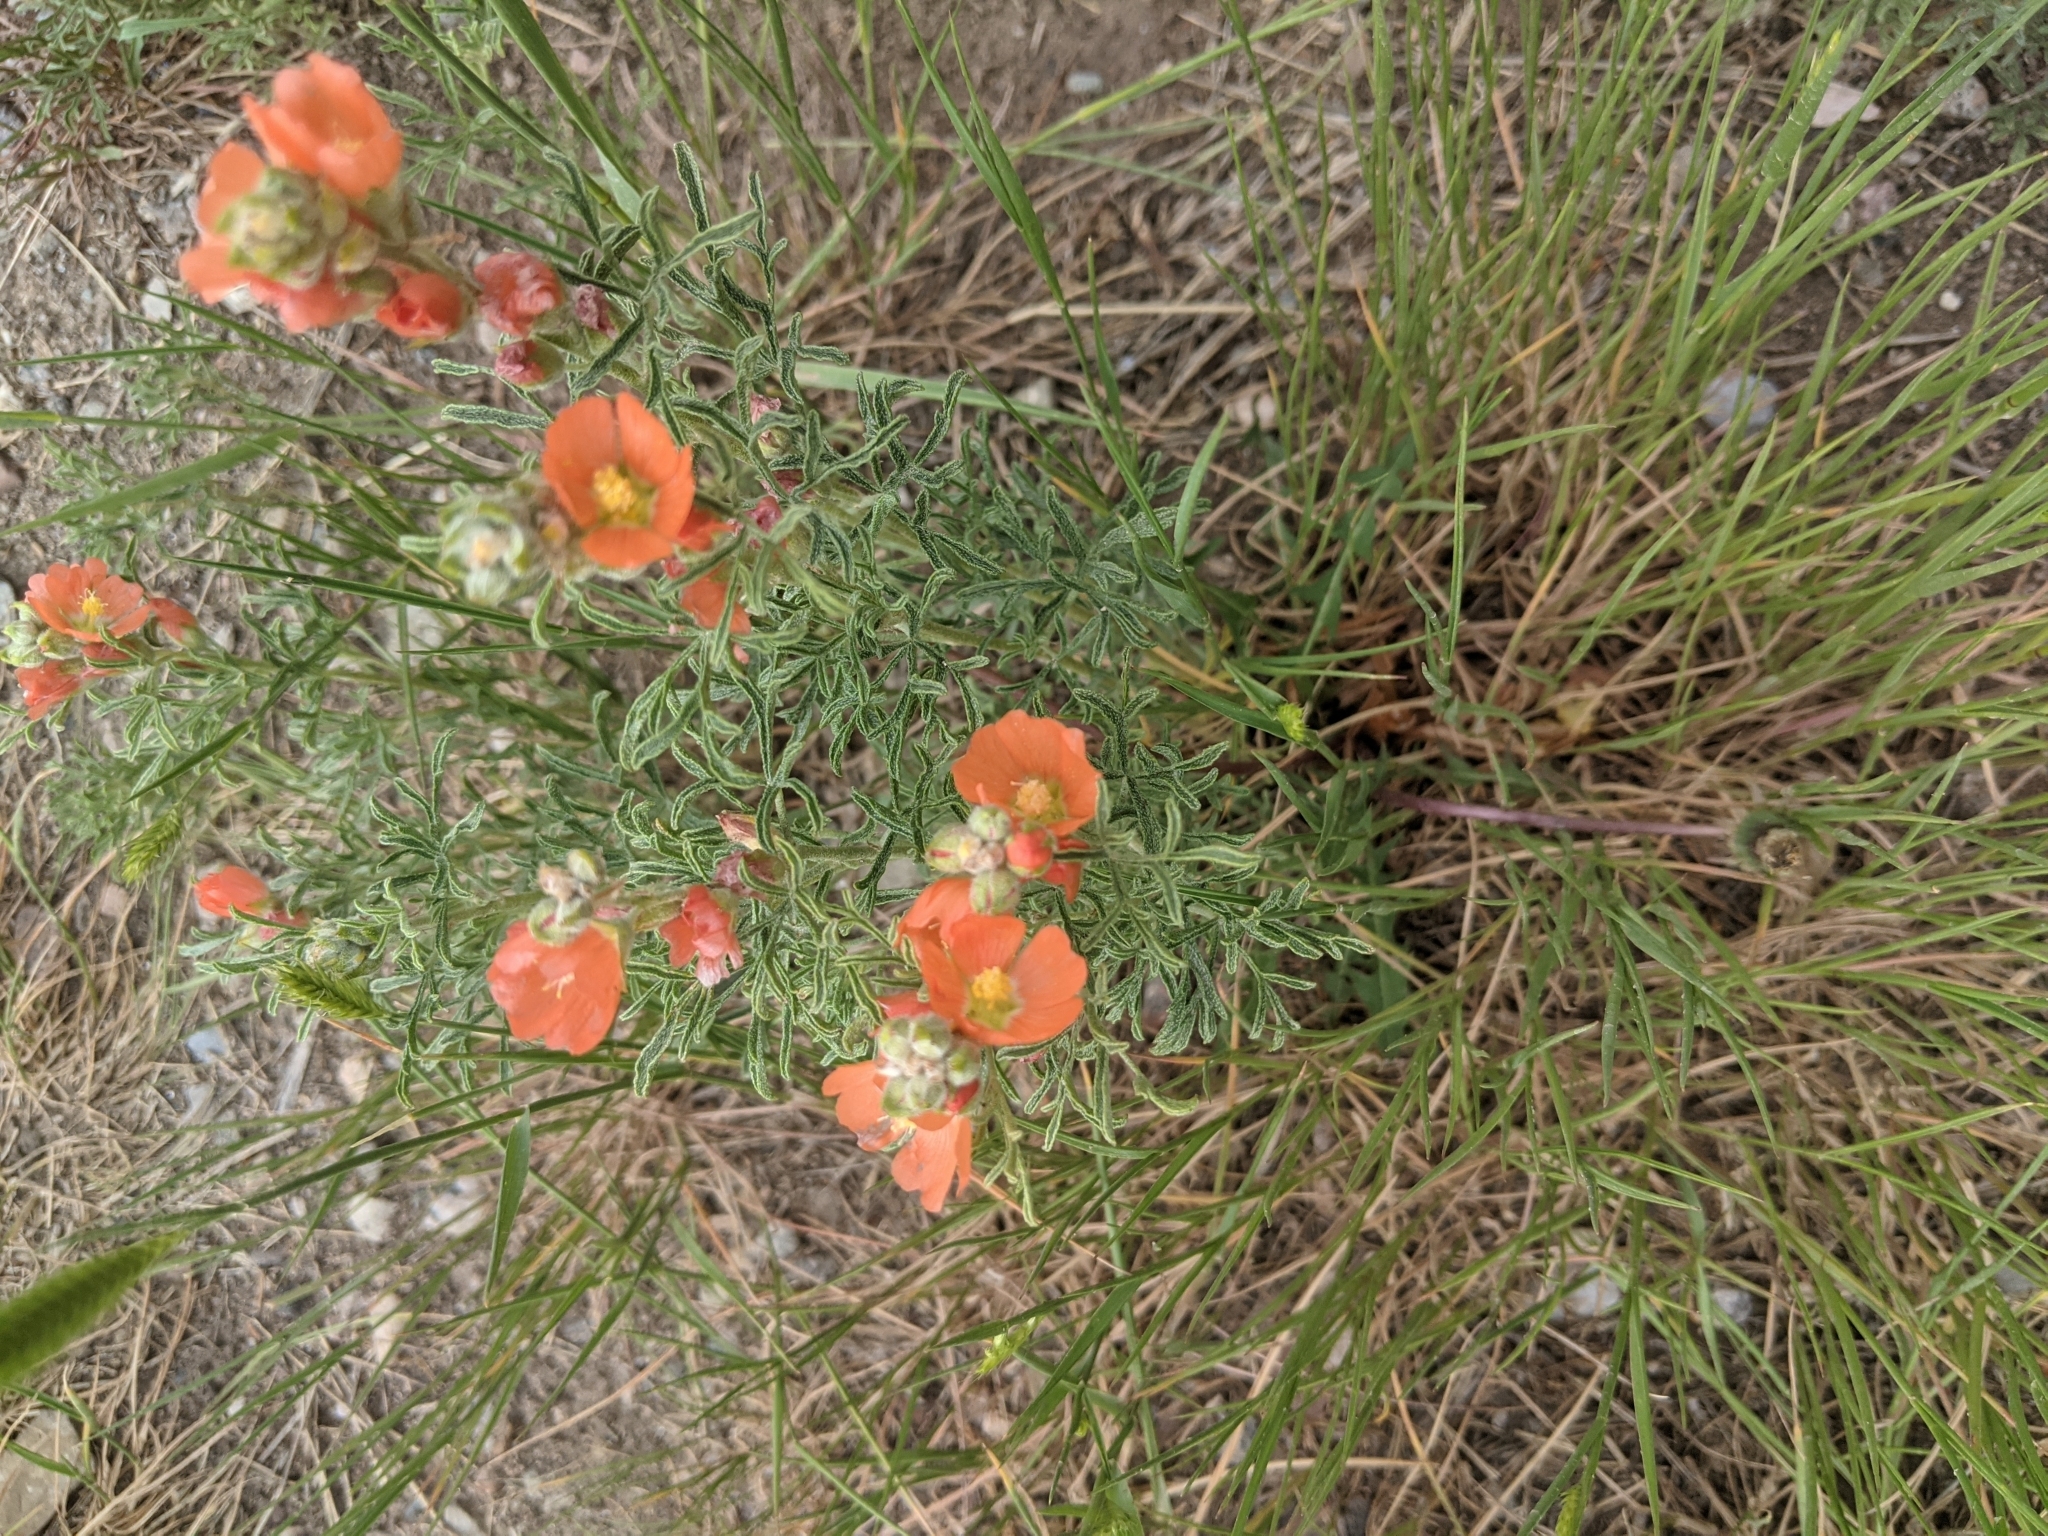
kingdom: Plantae
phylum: Tracheophyta
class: Magnoliopsida
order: Malvales
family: Malvaceae
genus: Sphaeralcea
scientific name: Sphaeralcea coccinea
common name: Moss-rose
